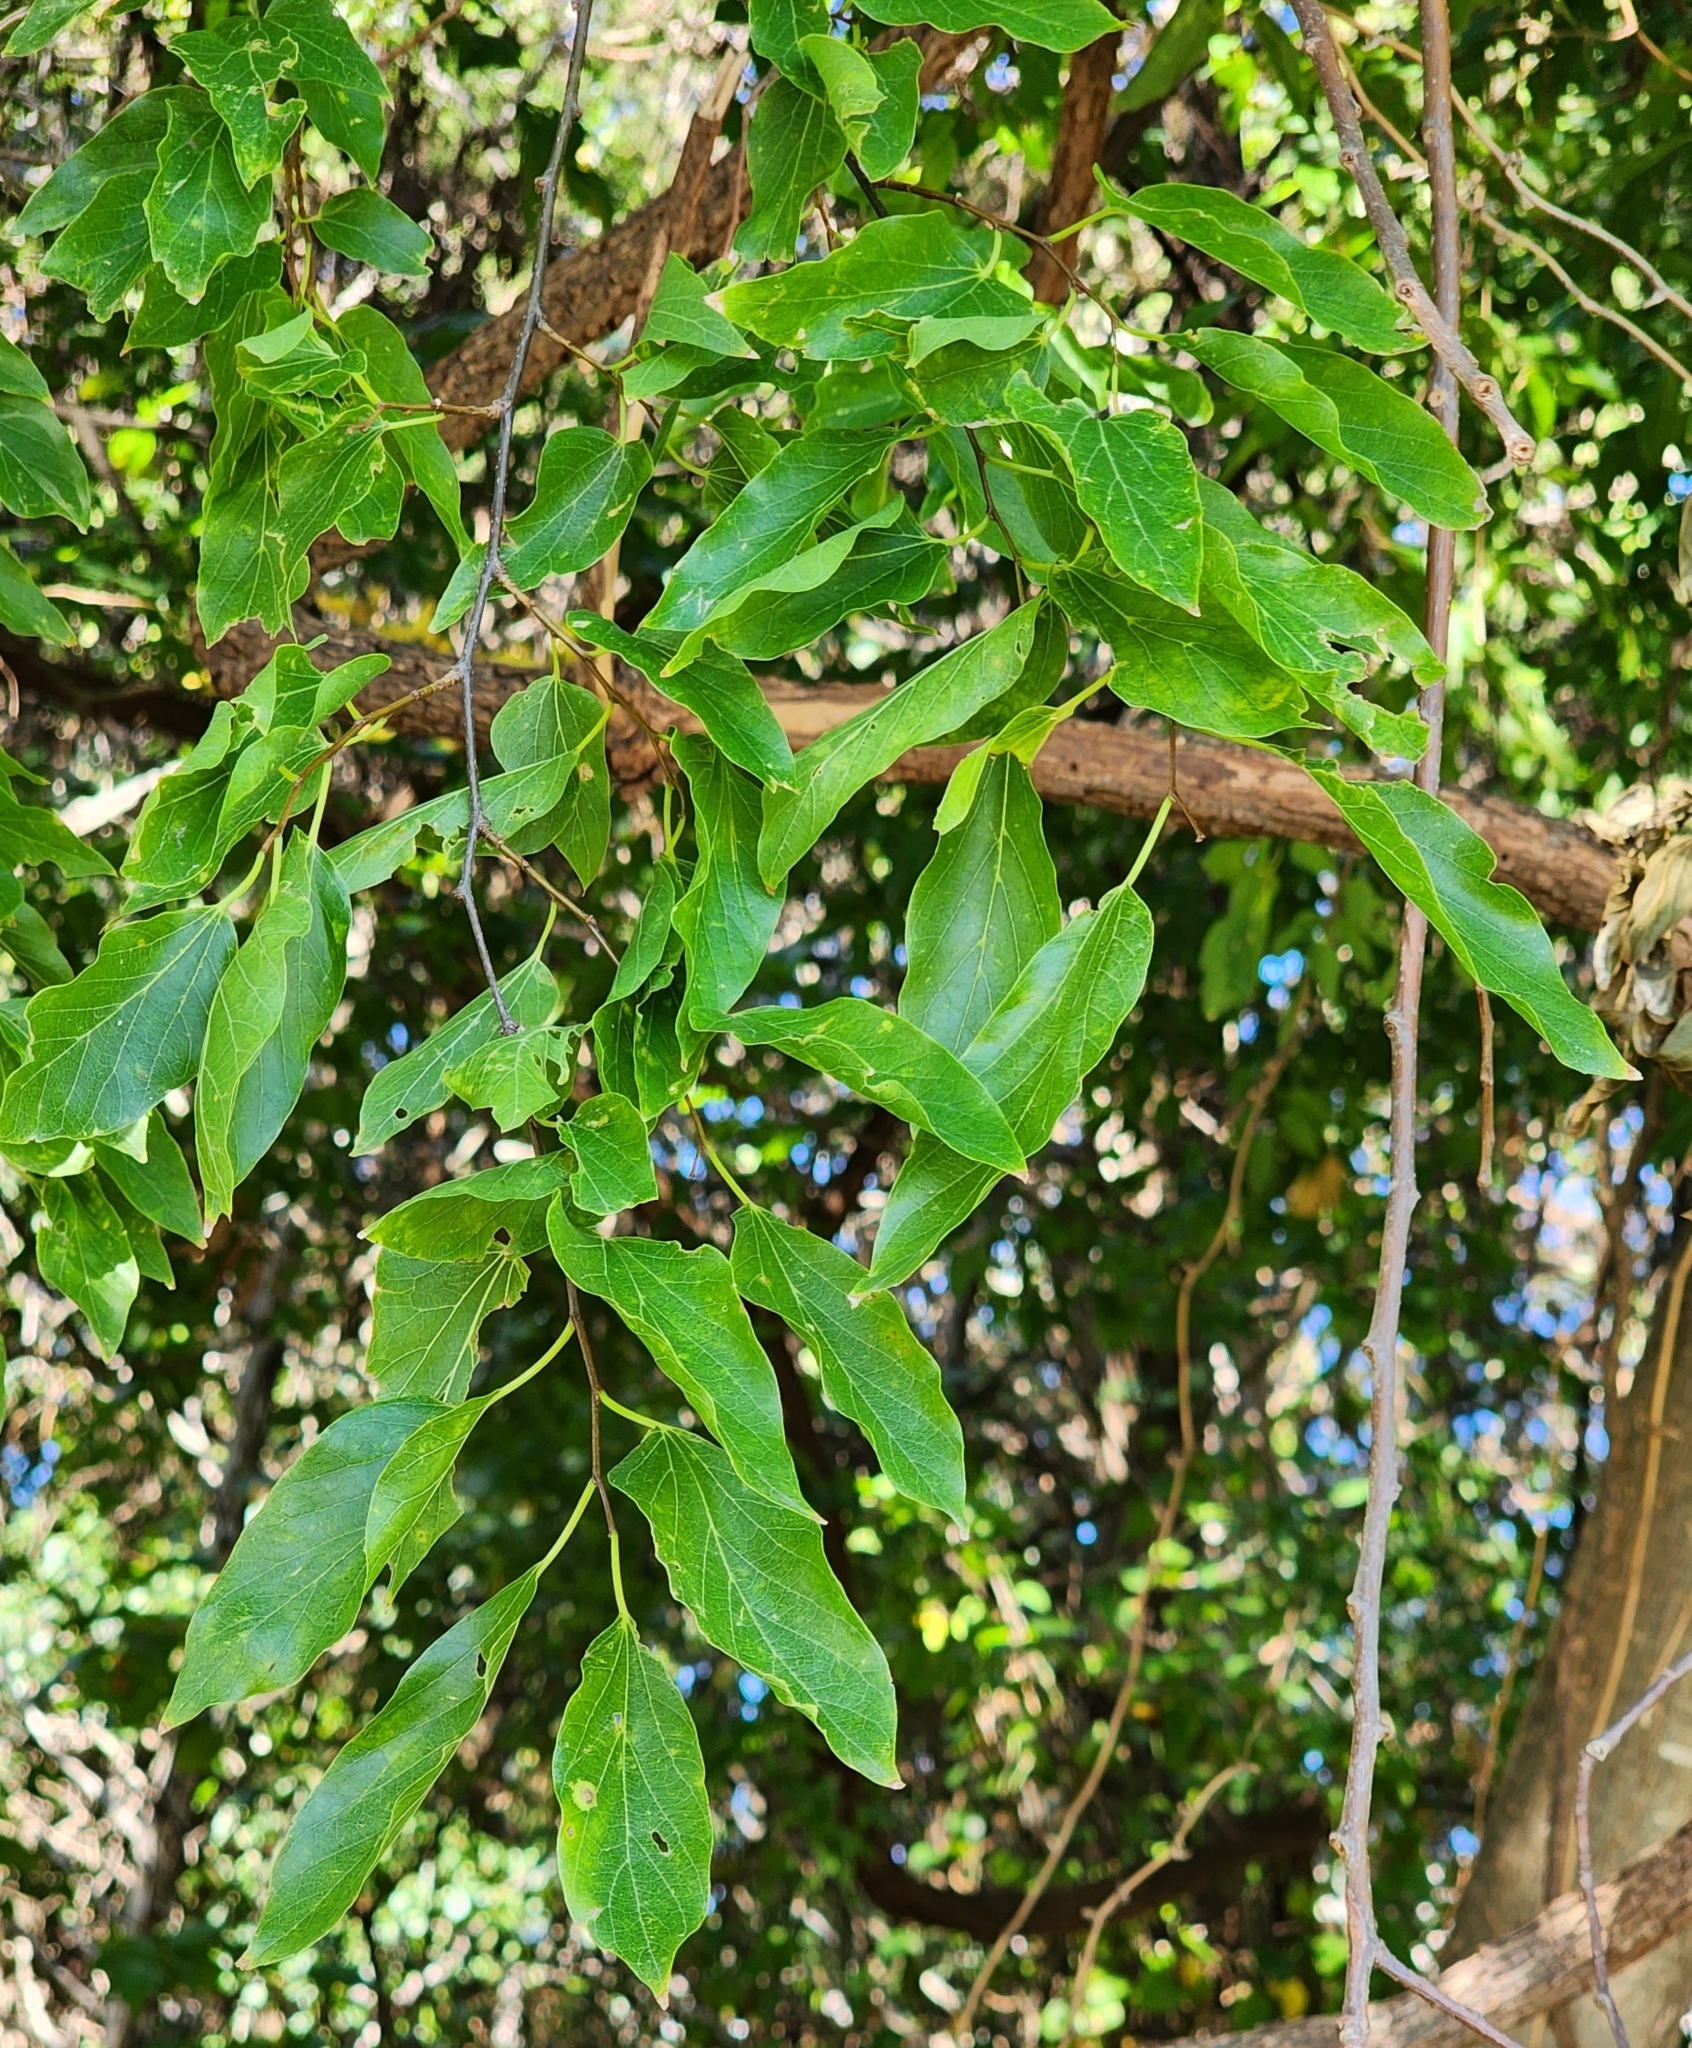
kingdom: Plantae
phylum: Tracheophyta
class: Magnoliopsida
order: Rosales
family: Cannabaceae
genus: Celtis
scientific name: Celtis laevigata
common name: Sugarberry
